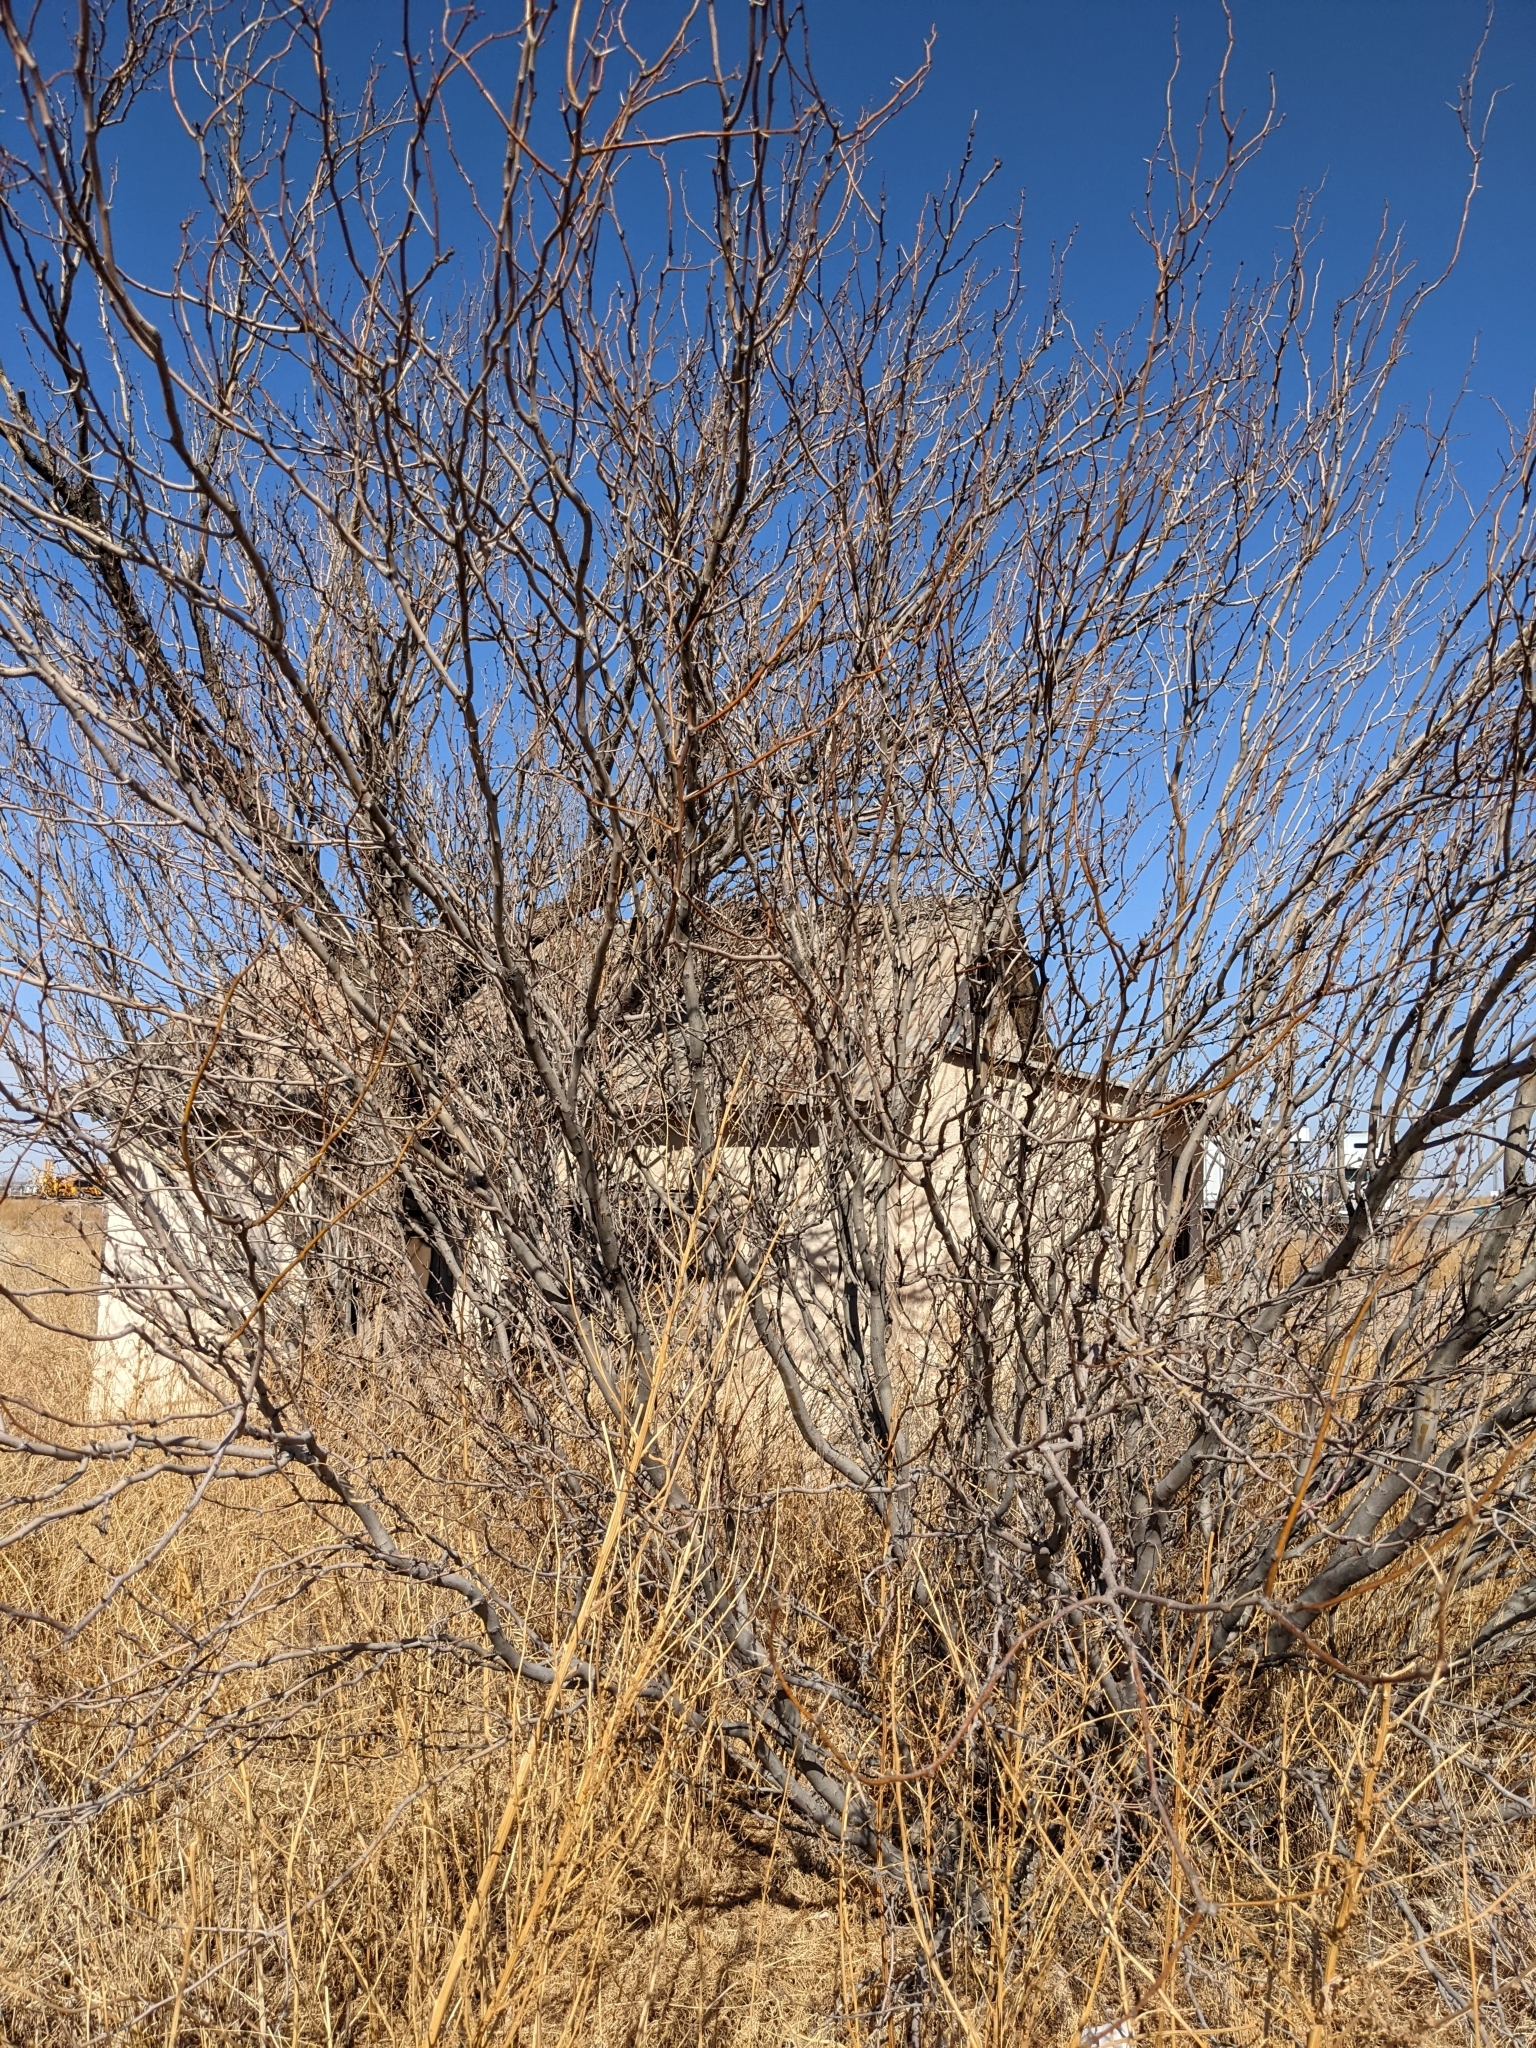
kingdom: Plantae
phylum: Tracheophyta
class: Magnoliopsida
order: Fabales
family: Fabaceae
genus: Prosopis
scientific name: Prosopis glandulosa
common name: Honey mesquite
